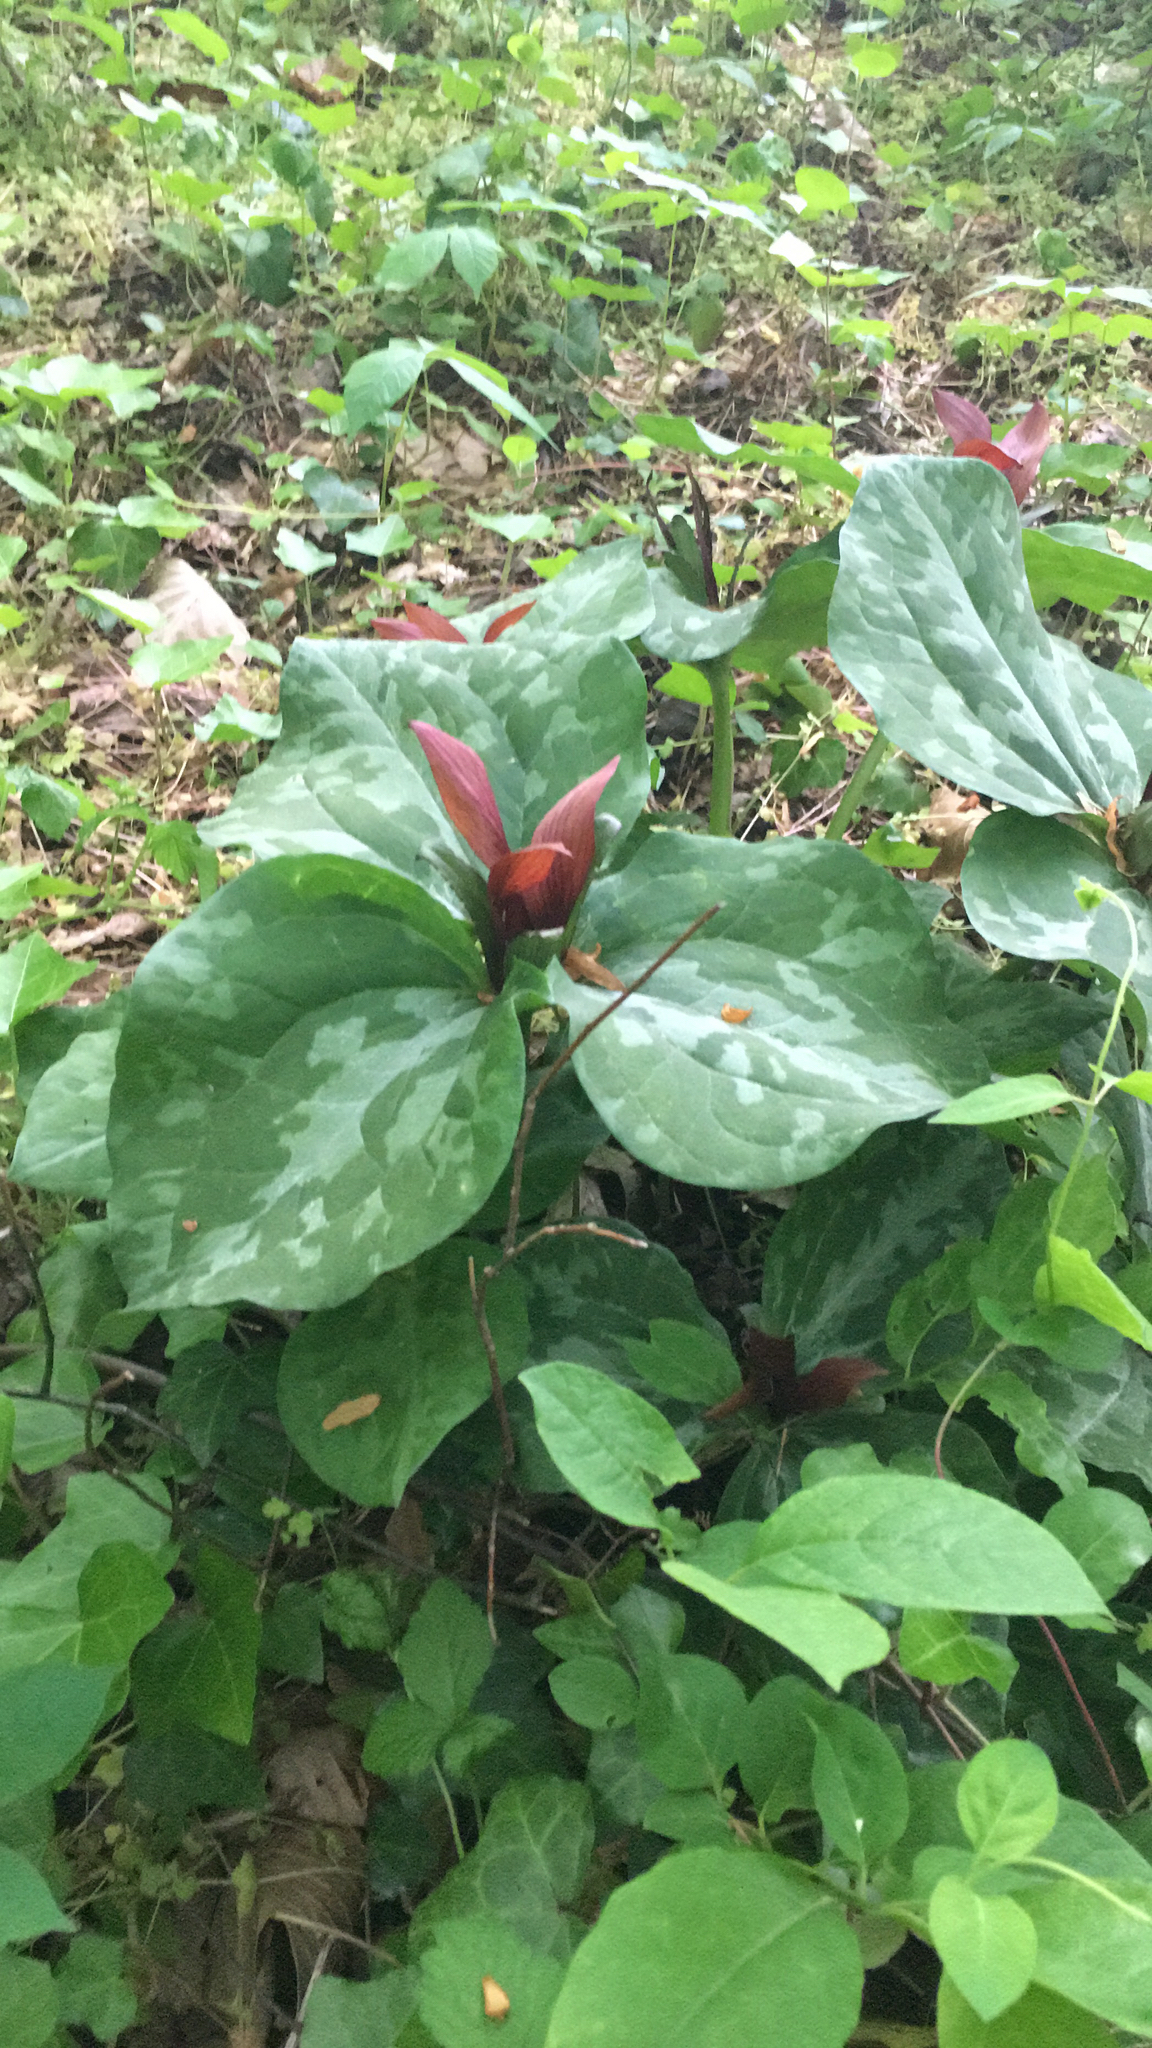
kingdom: Plantae
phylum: Tracheophyta
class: Liliopsida
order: Liliales
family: Melanthiaceae
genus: Trillium
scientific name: Trillium cuneatum
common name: Cuneate trillium
